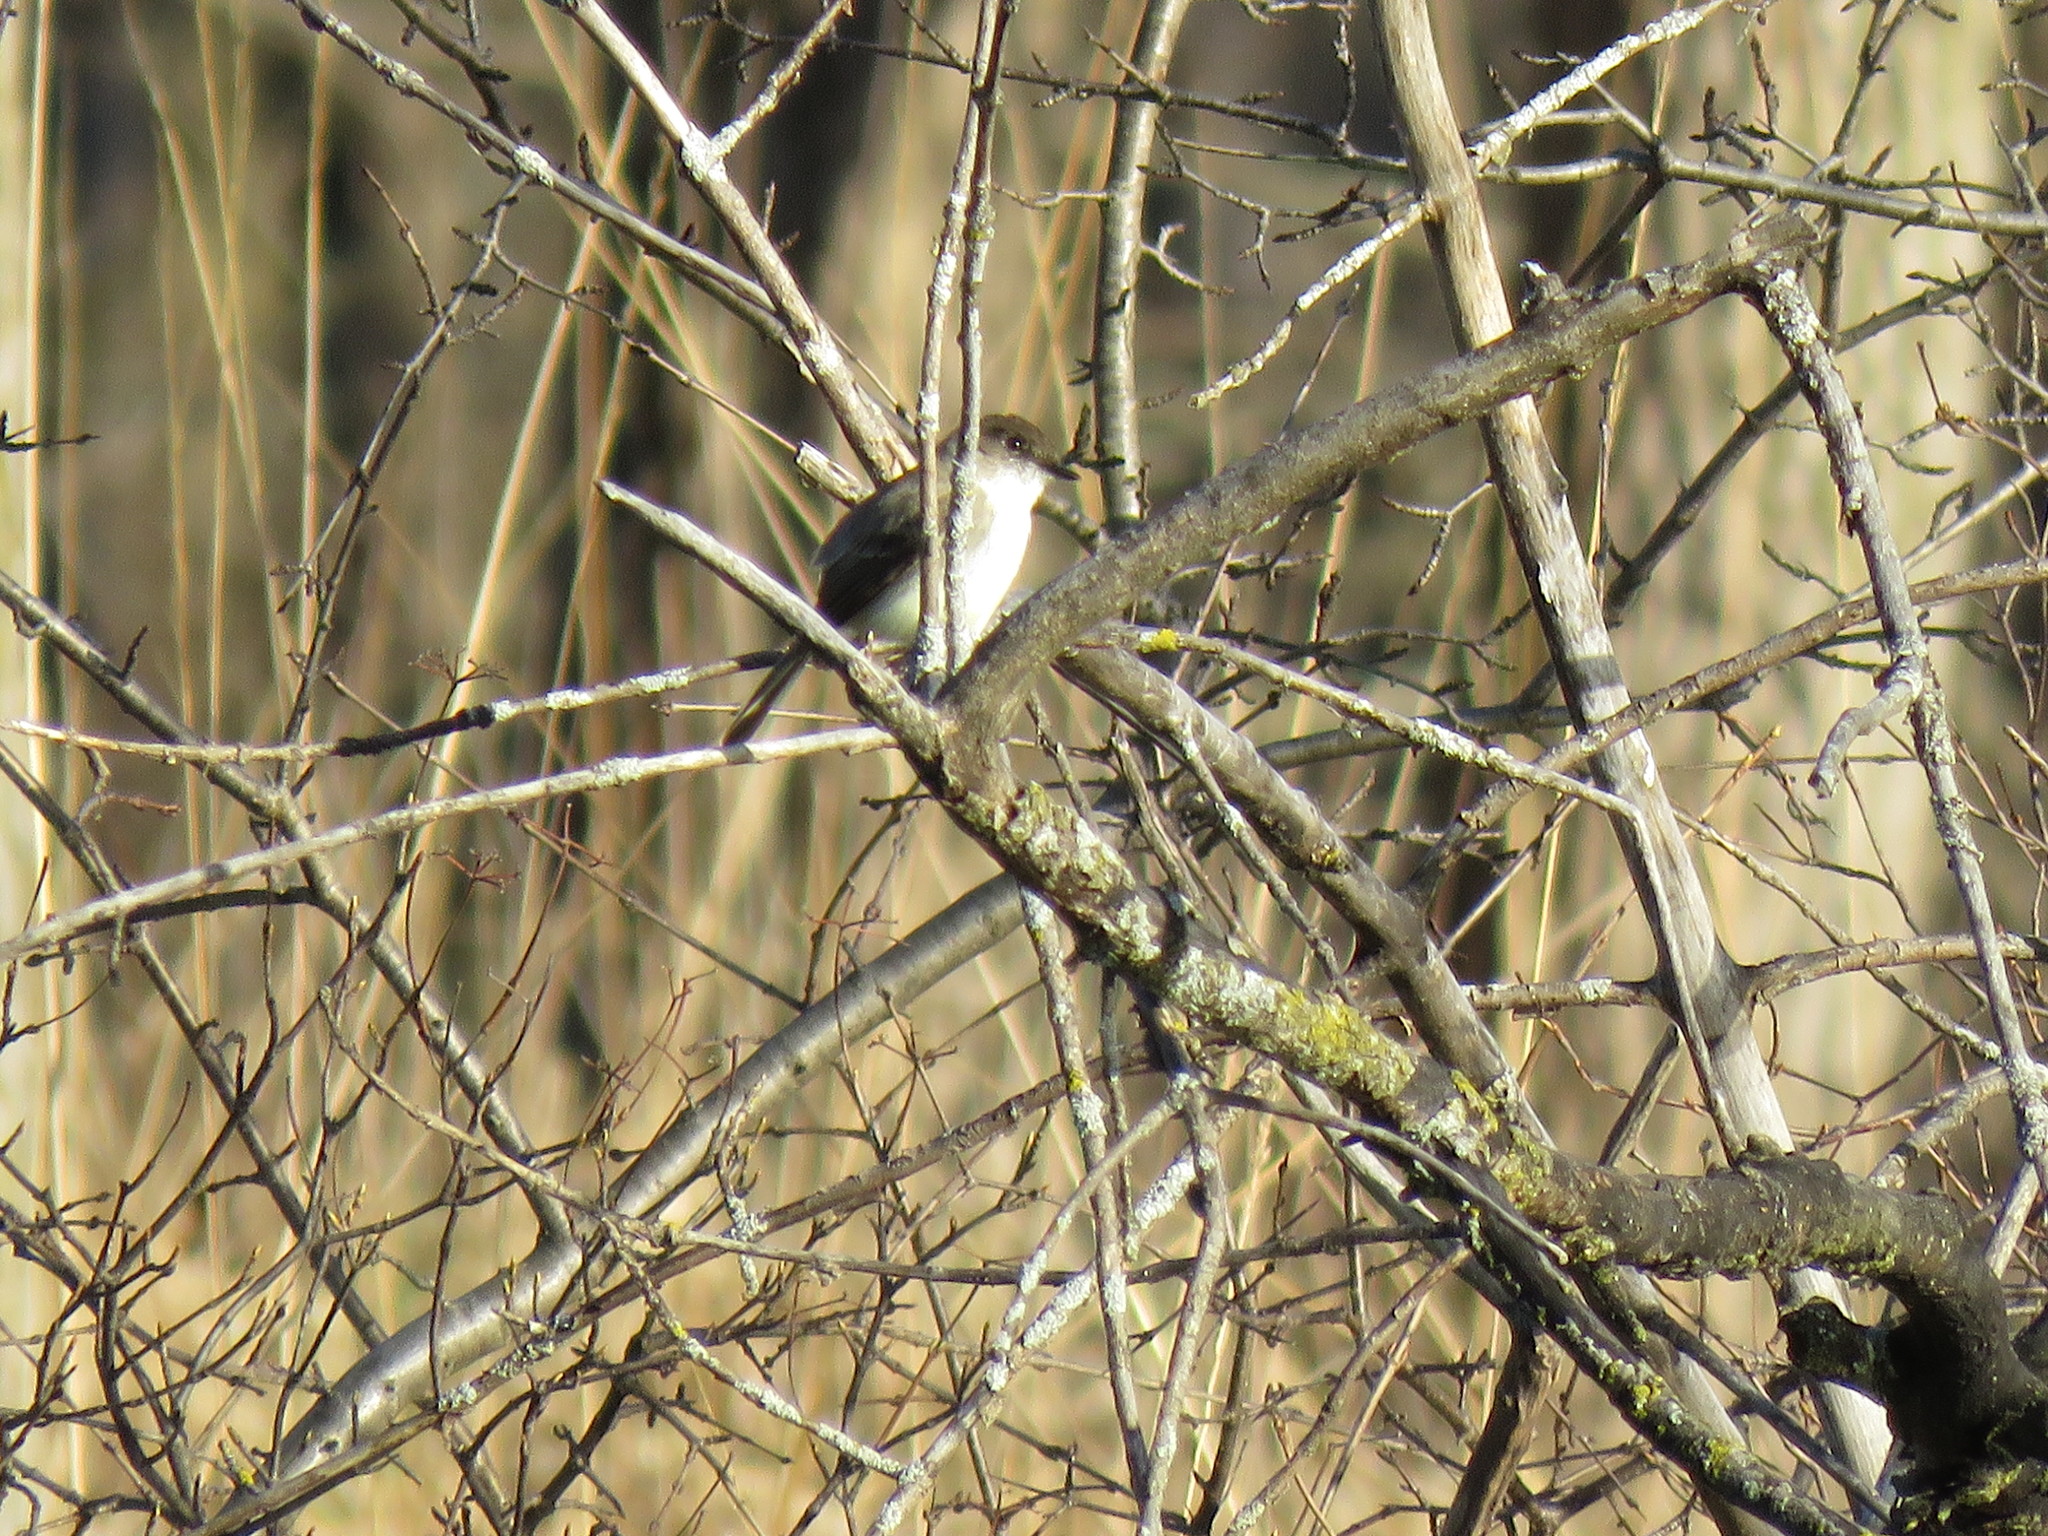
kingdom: Animalia
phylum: Chordata
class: Aves
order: Passeriformes
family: Tyrannidae
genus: Sayornis
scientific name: Sayornis phoebe
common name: Eastern phoebe
